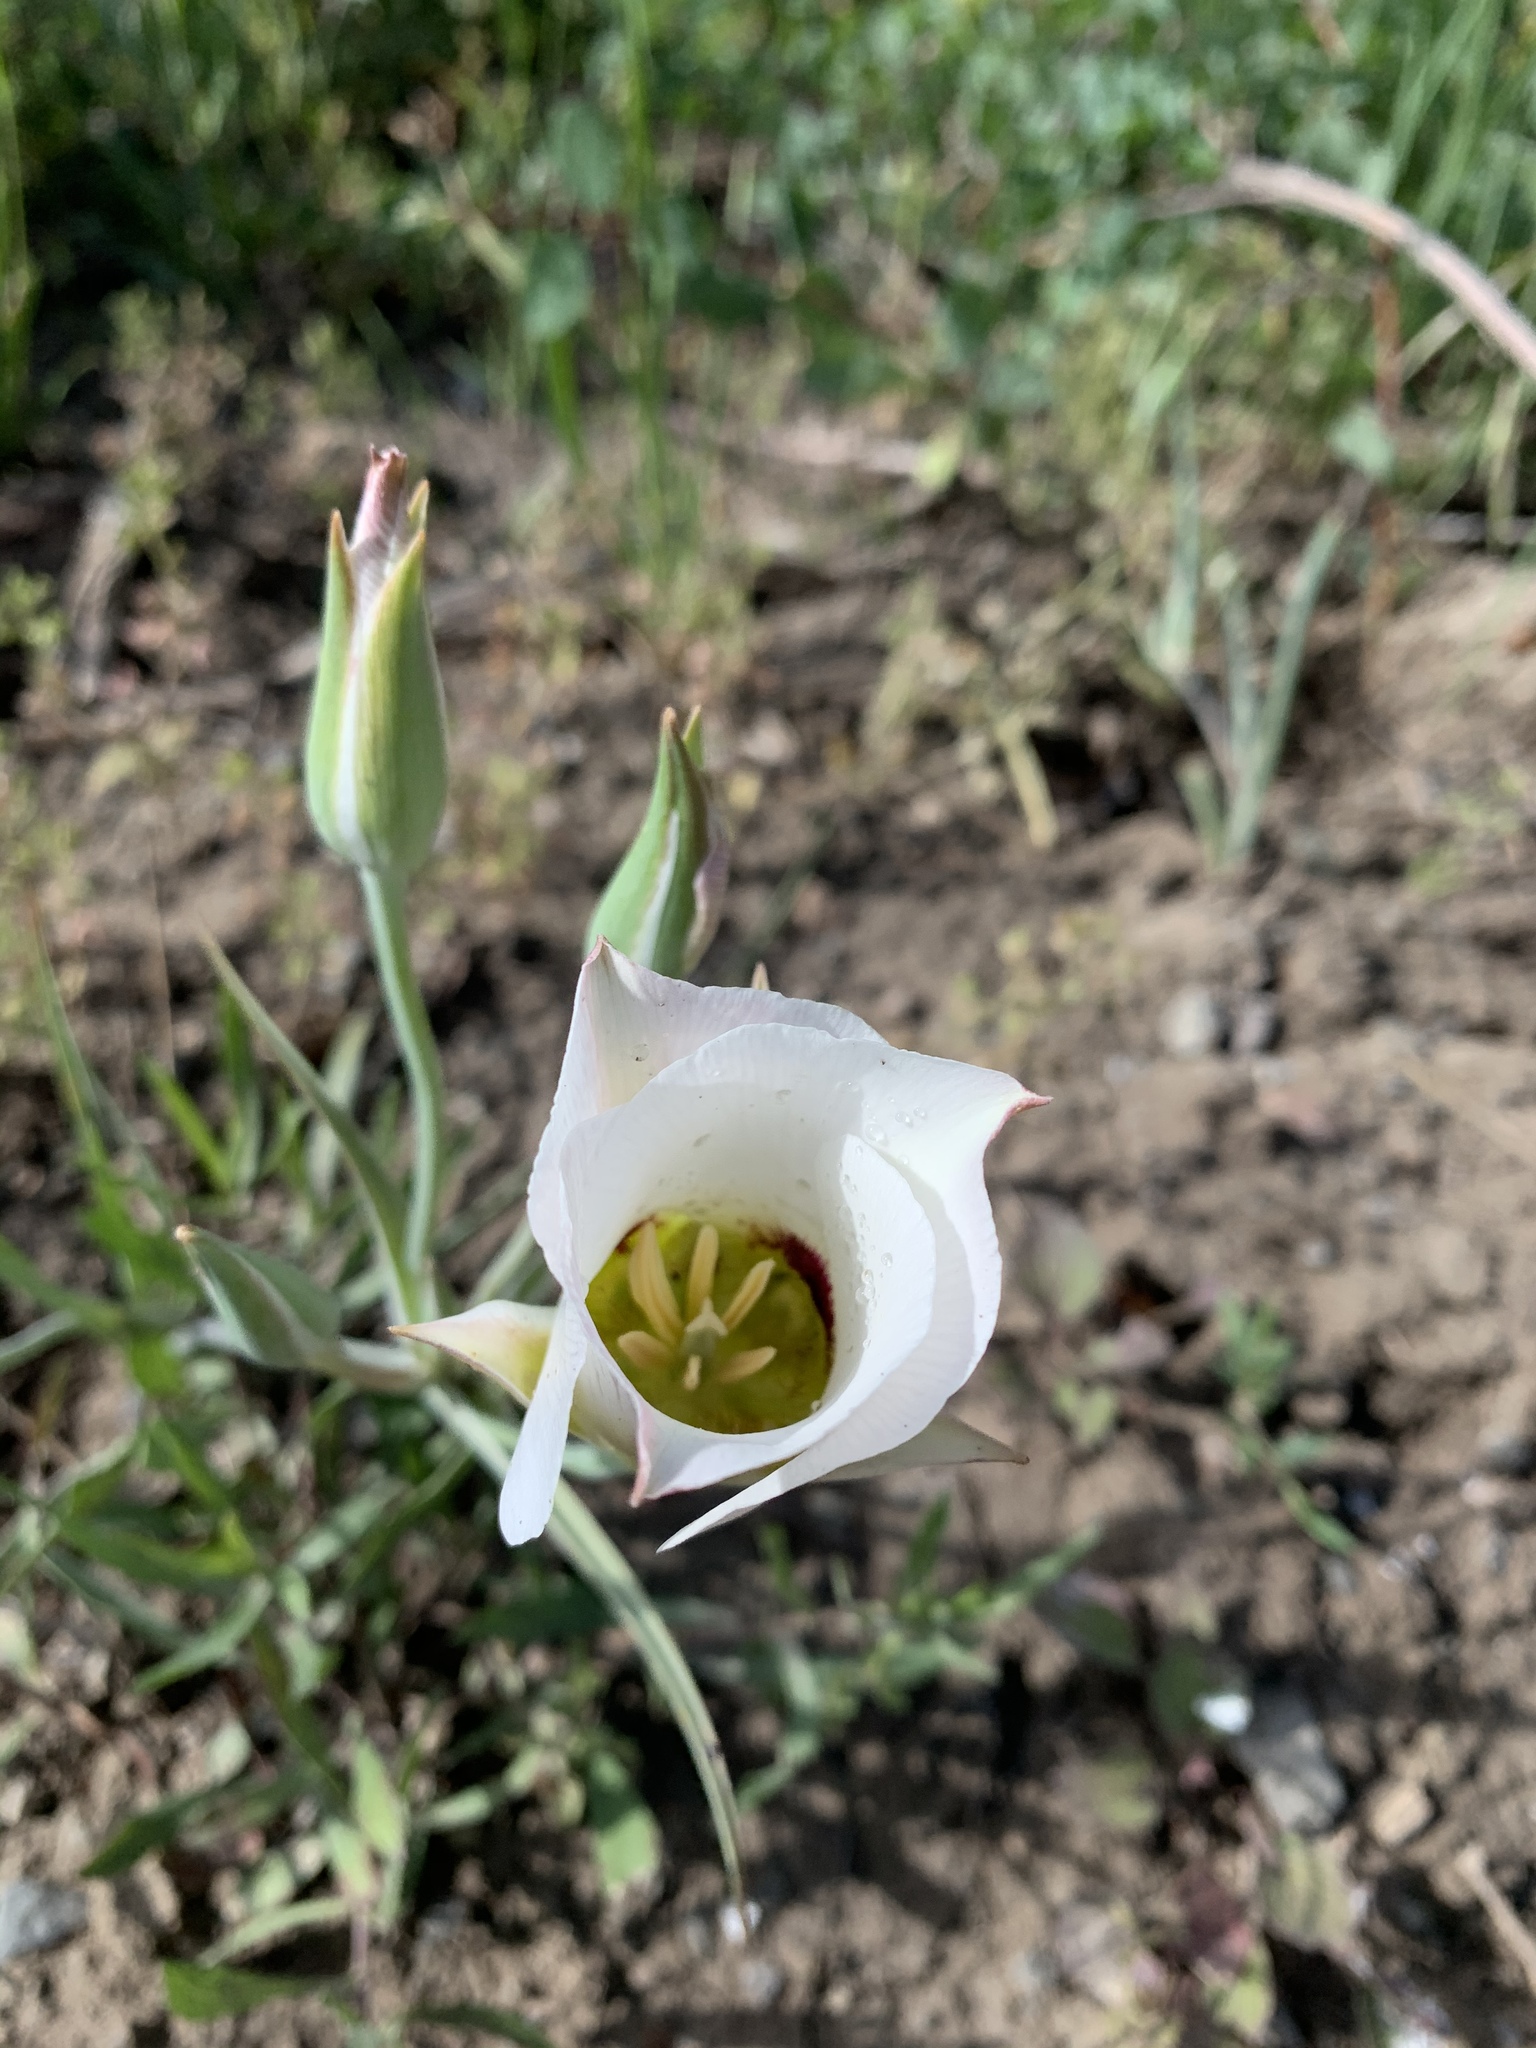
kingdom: Plantae
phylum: Tracheophyta
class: Liliopsida
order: Liliales
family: Liliaceae
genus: Calochortus
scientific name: Calochortus nuttallii
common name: Sego-lily
